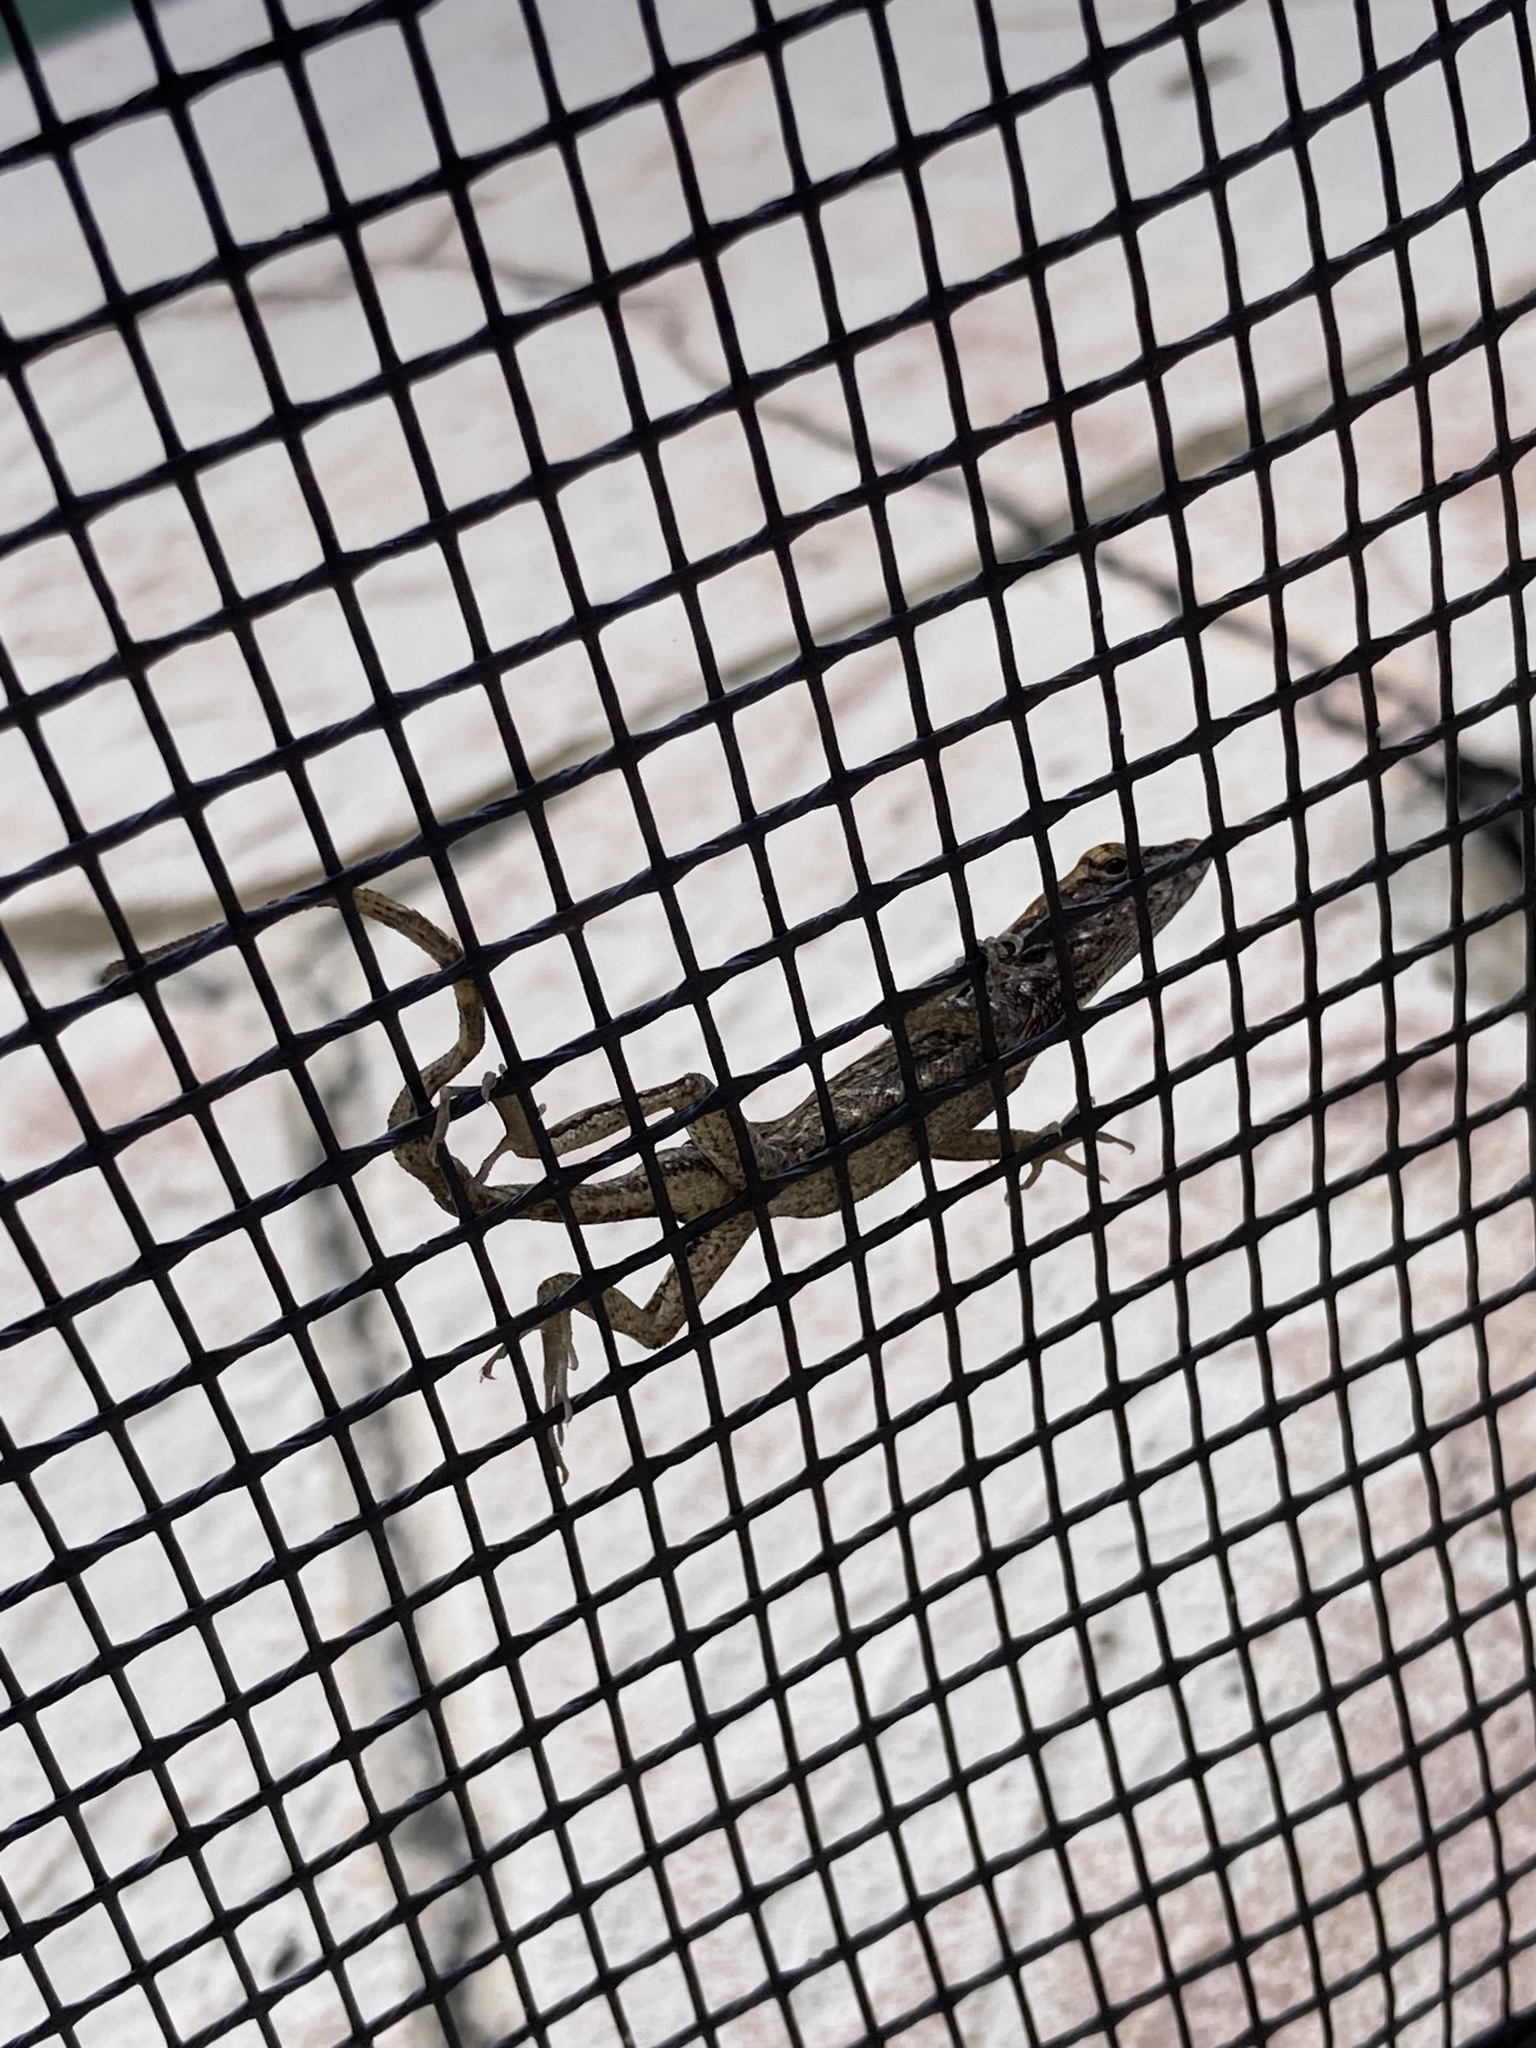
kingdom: Animalia
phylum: Chordata
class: Squamata
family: Dactyloidae
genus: Anolis
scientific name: Anolis sagrei
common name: Brown anole
